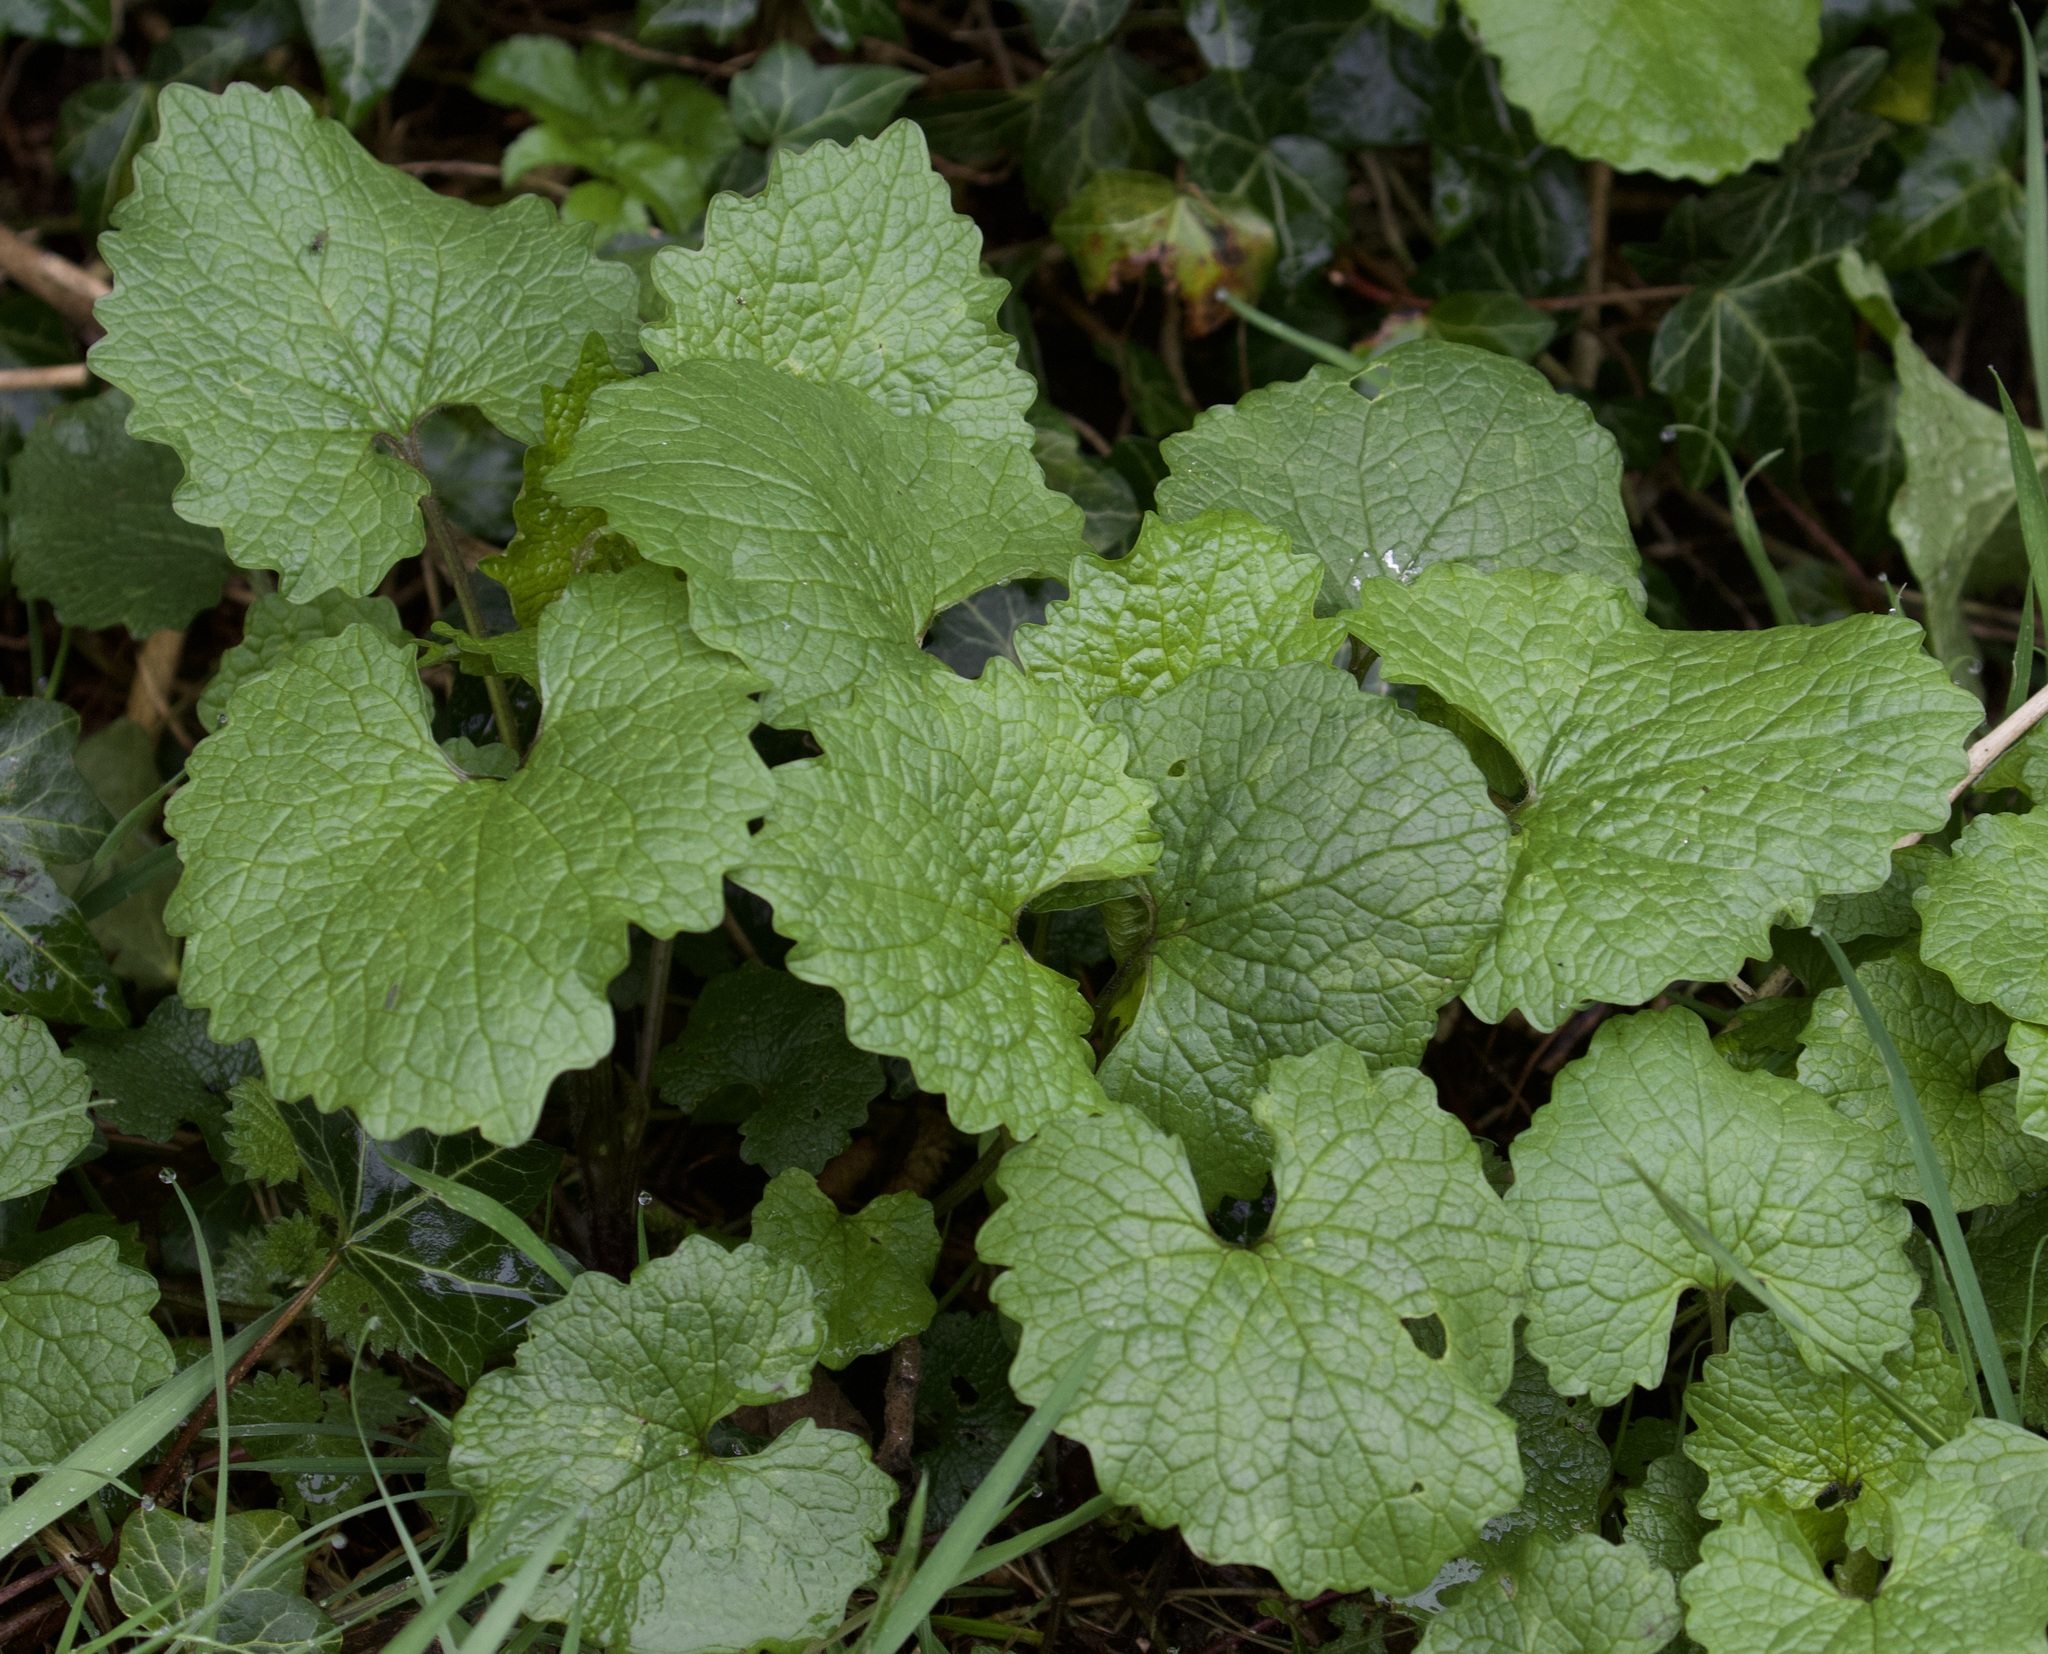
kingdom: Plantae
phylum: Tracheophyta
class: Magnoliopsida
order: Brassicales
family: Brassicaceae
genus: Alliaria
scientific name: Alliaria petiolata
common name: Garlic mustard
